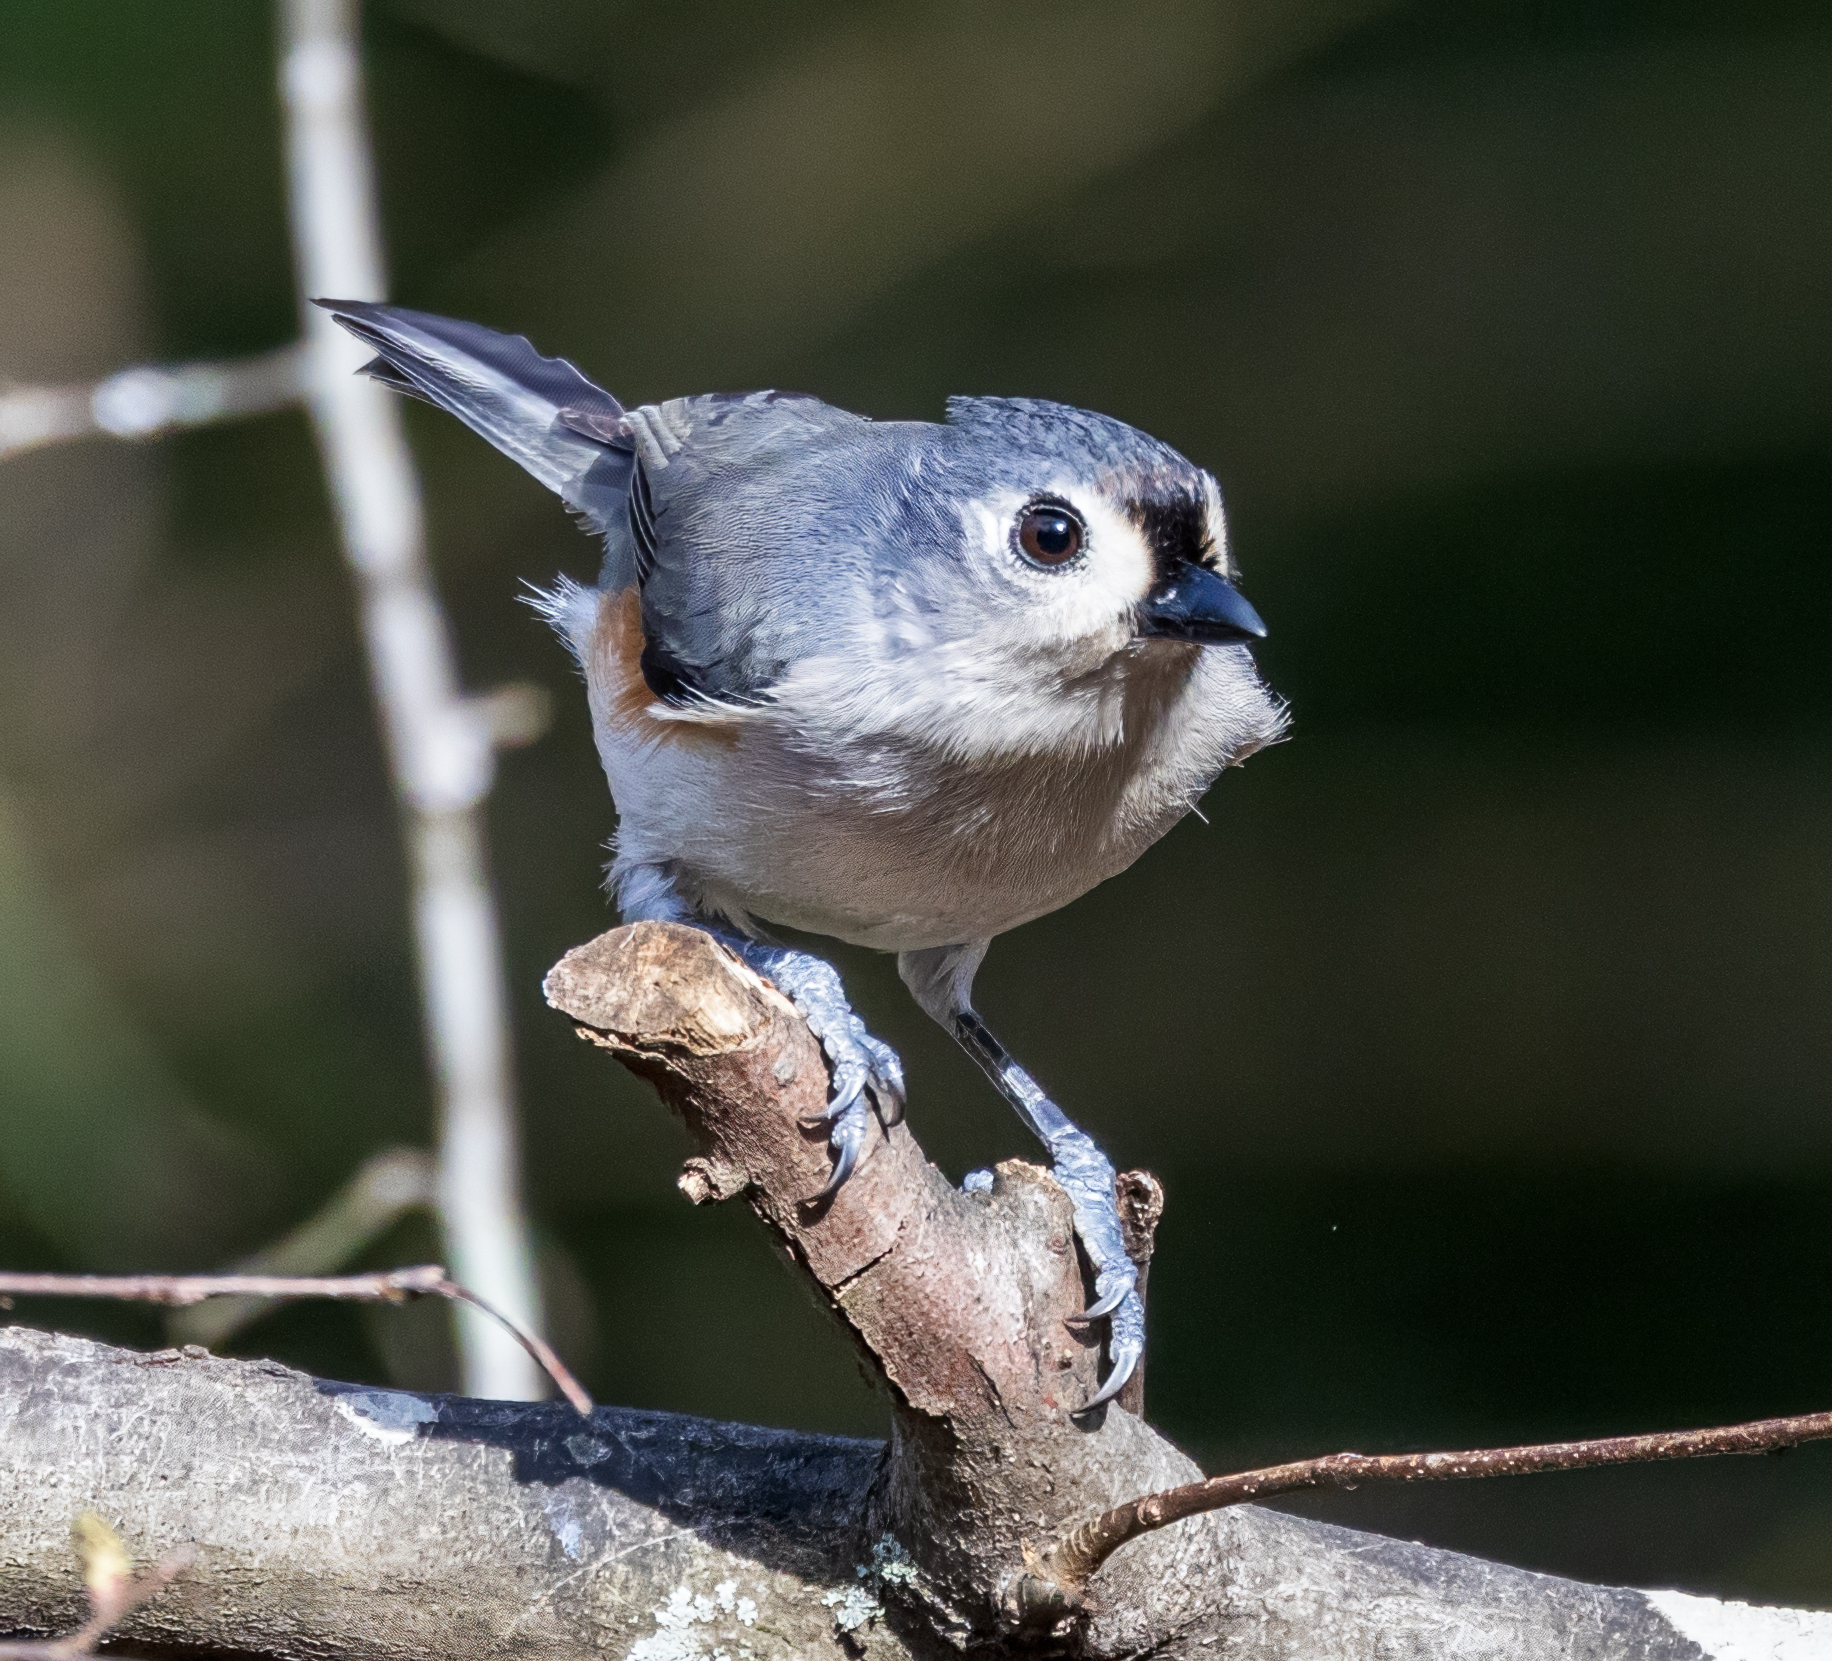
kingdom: Animalia
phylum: Chordata
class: Aves
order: Passeriformes
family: Paridae
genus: Baeolophus
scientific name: Baeolophus bicolor
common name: Tufted titmouse
